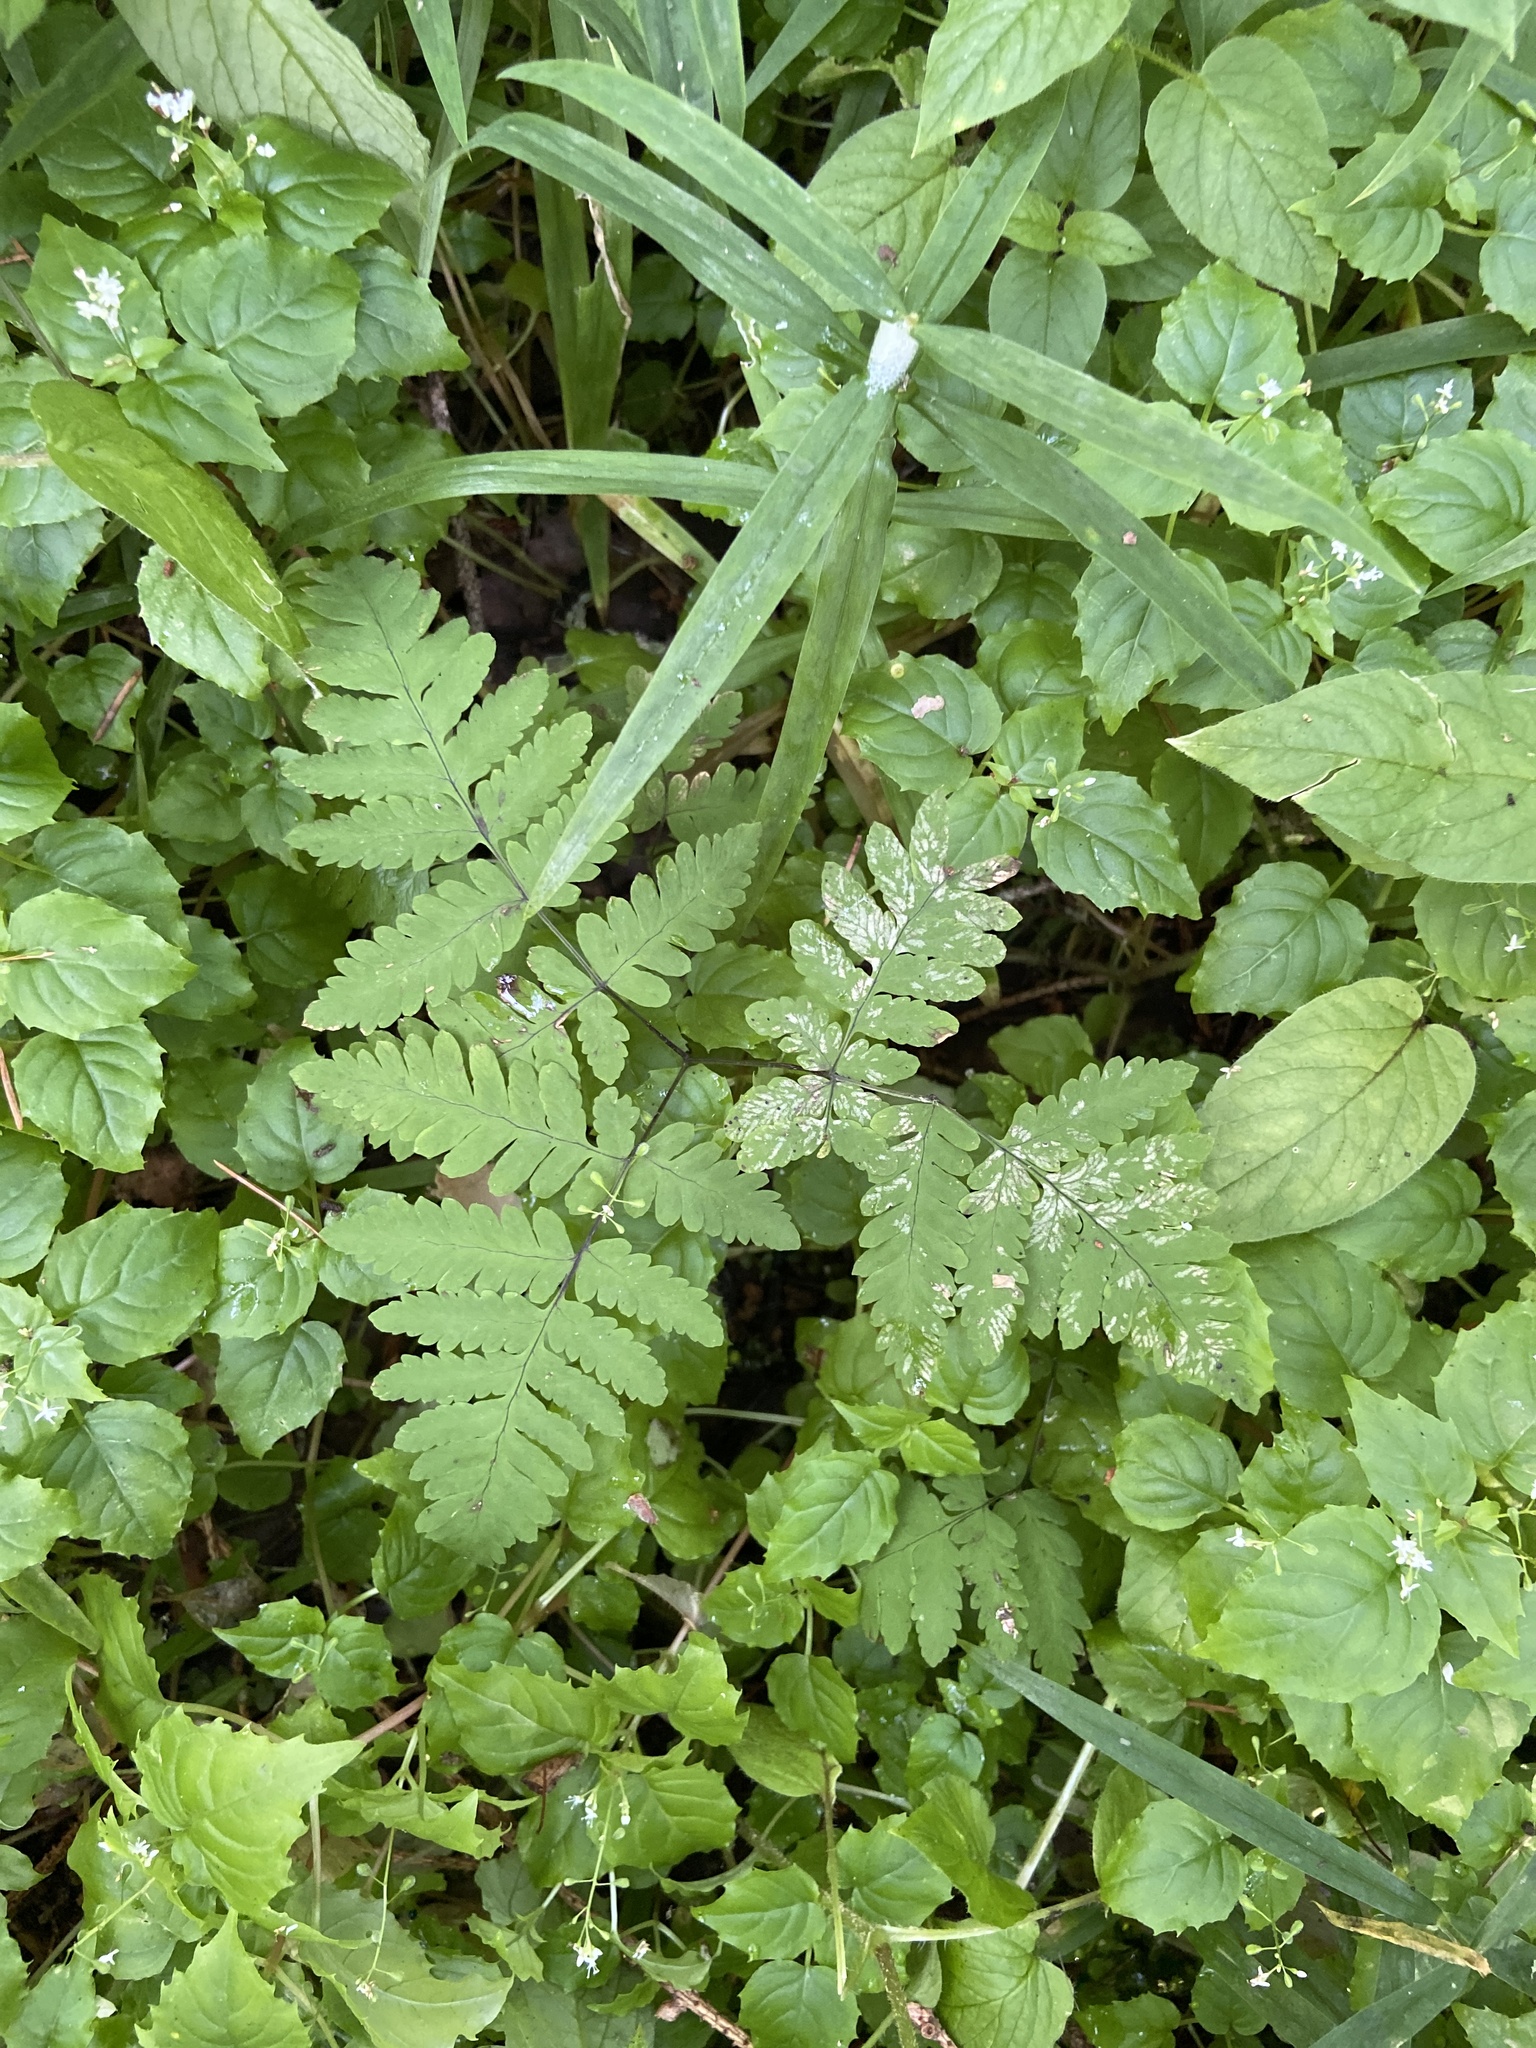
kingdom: Plantae
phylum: Tracheophyta
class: Polypodiopsida
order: Polypodiales
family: Cystopteridaceae
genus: Gymnocarpium
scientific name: Gymnocarpium dryopteris
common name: Oak fern
